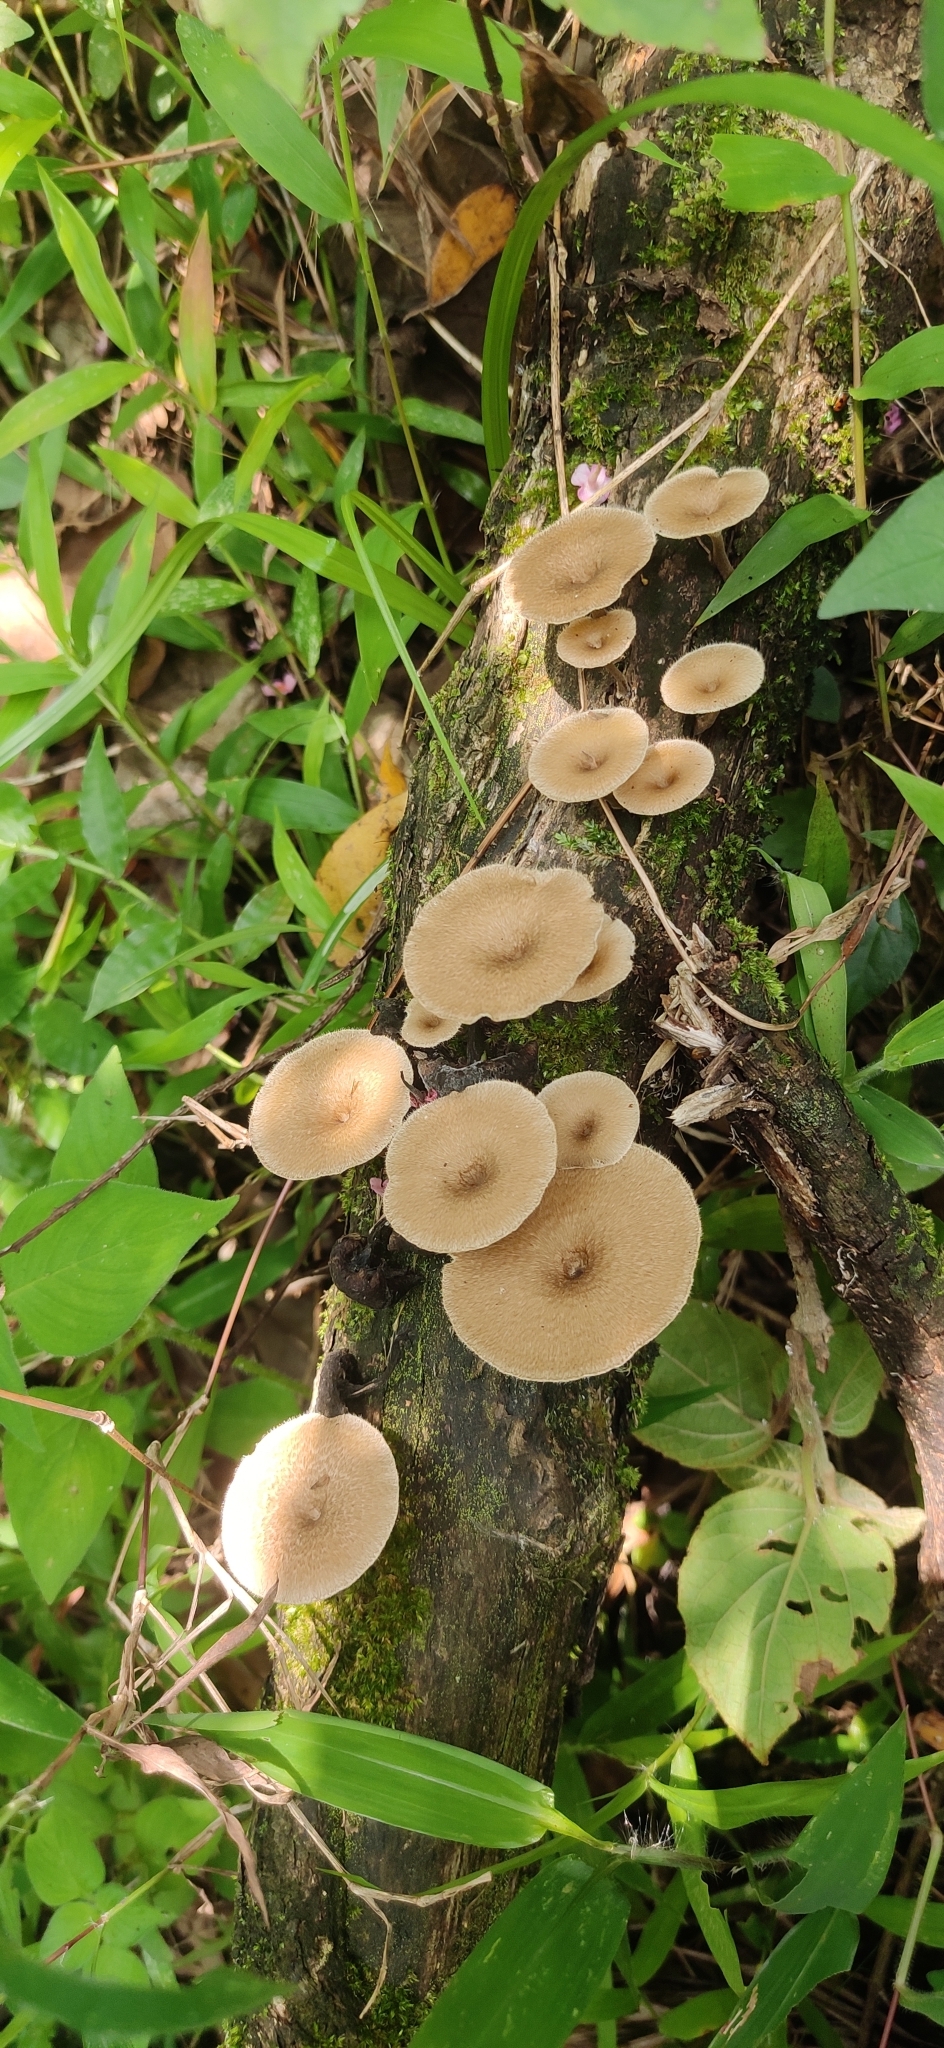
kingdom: Fungi
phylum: Basidiomycota
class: Agaricomycetes
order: Polyporales
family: Polyporaceae
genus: Lentinus
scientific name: Lentinus arcularius
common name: Spring polypore
